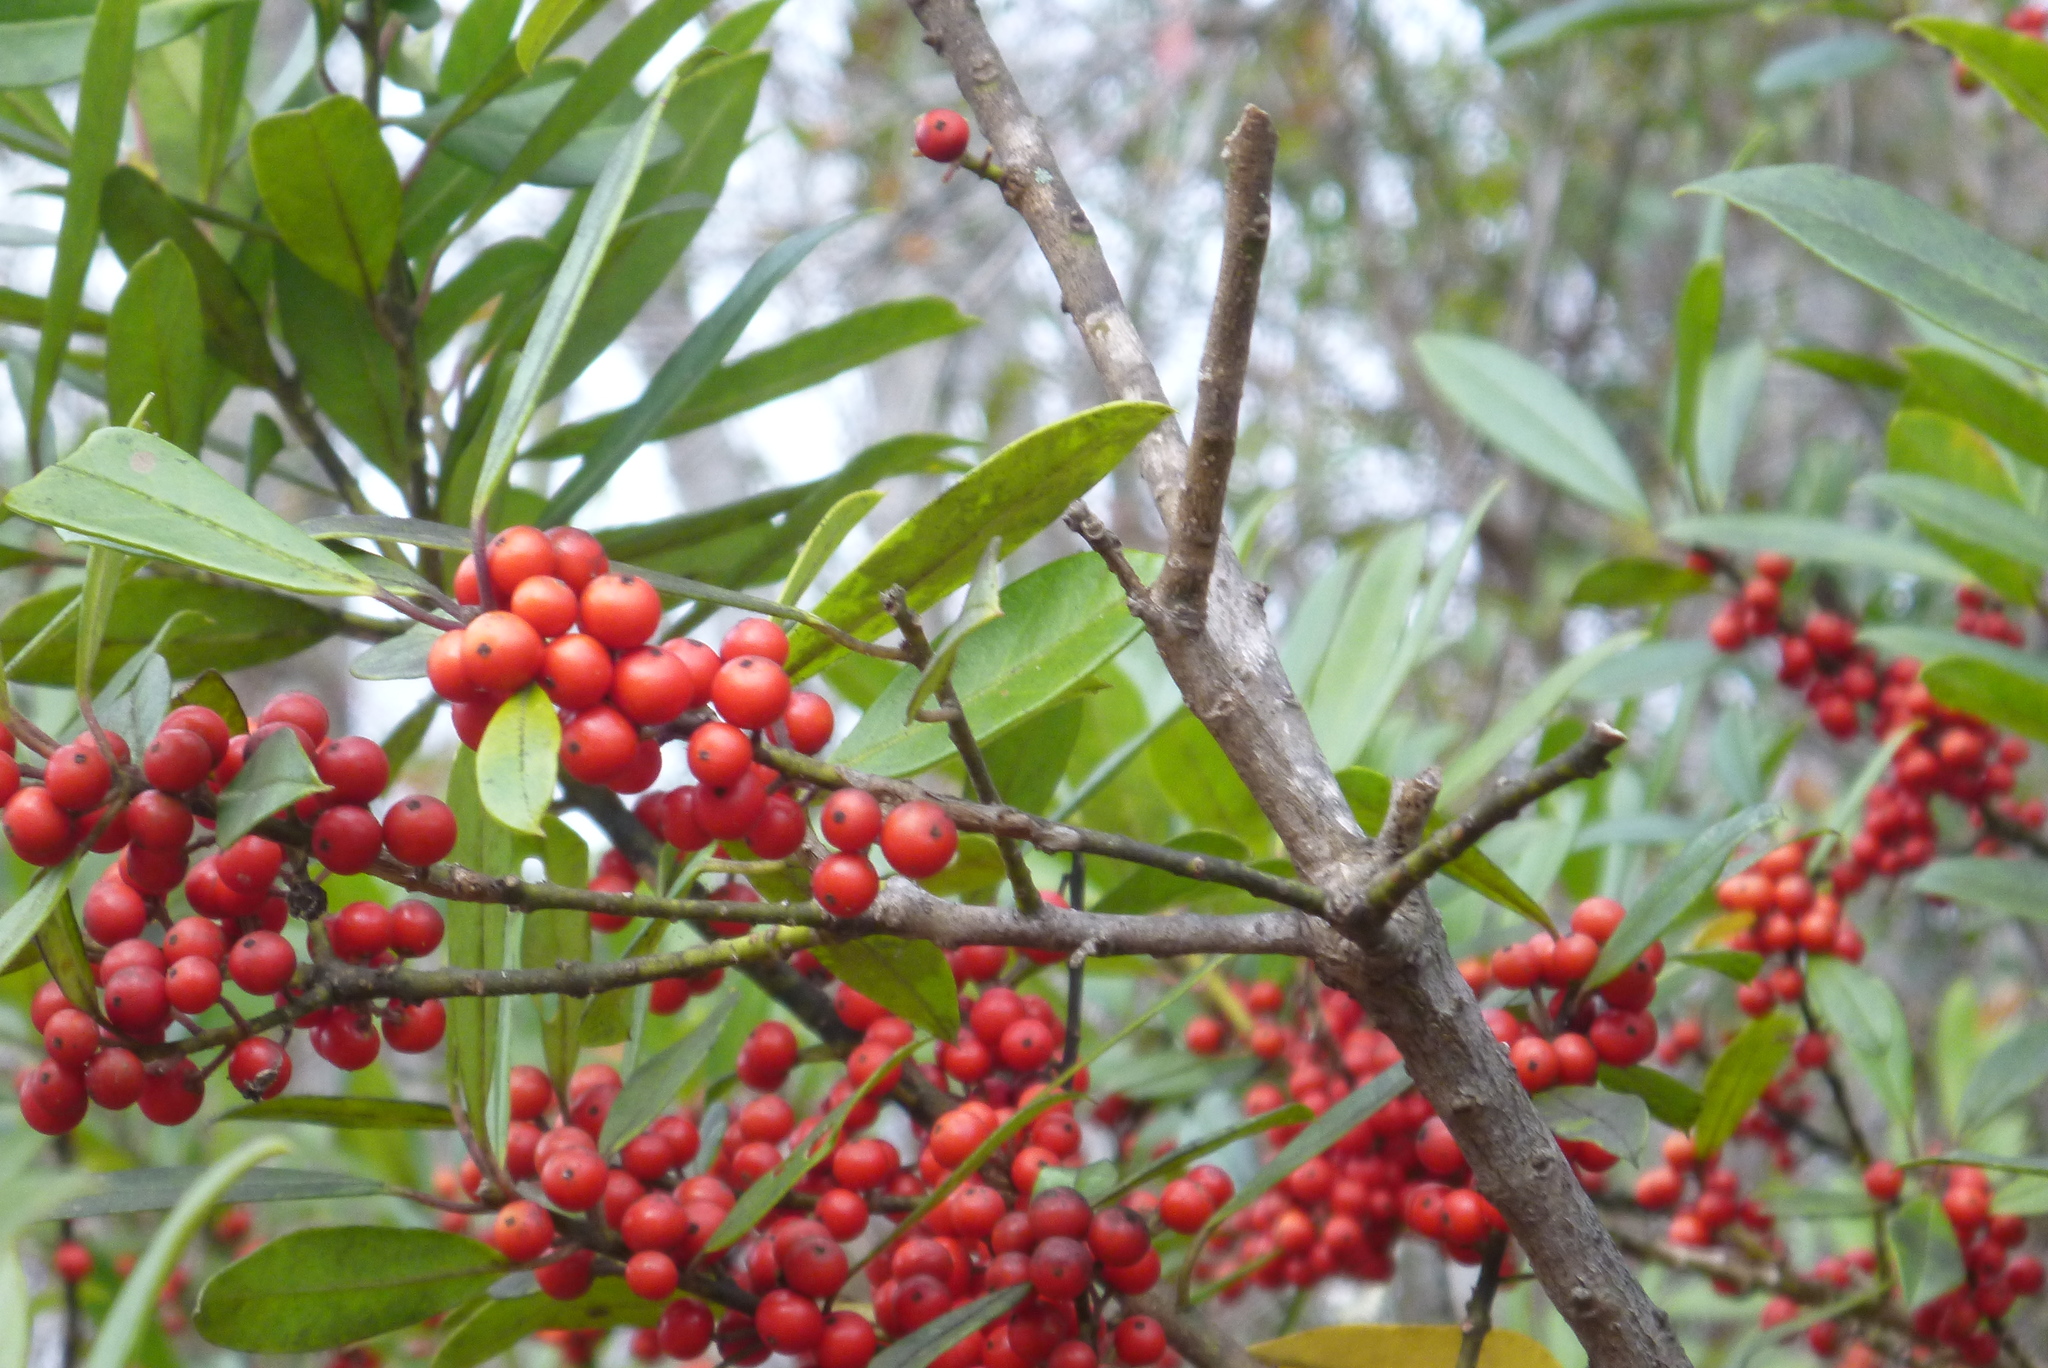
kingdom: Plantae
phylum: Tracheophyta
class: Magnoliopsida
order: Aquifoliales
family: Aquifoliaceae
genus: Ilex
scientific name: Ilex cassine
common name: Dahoon
